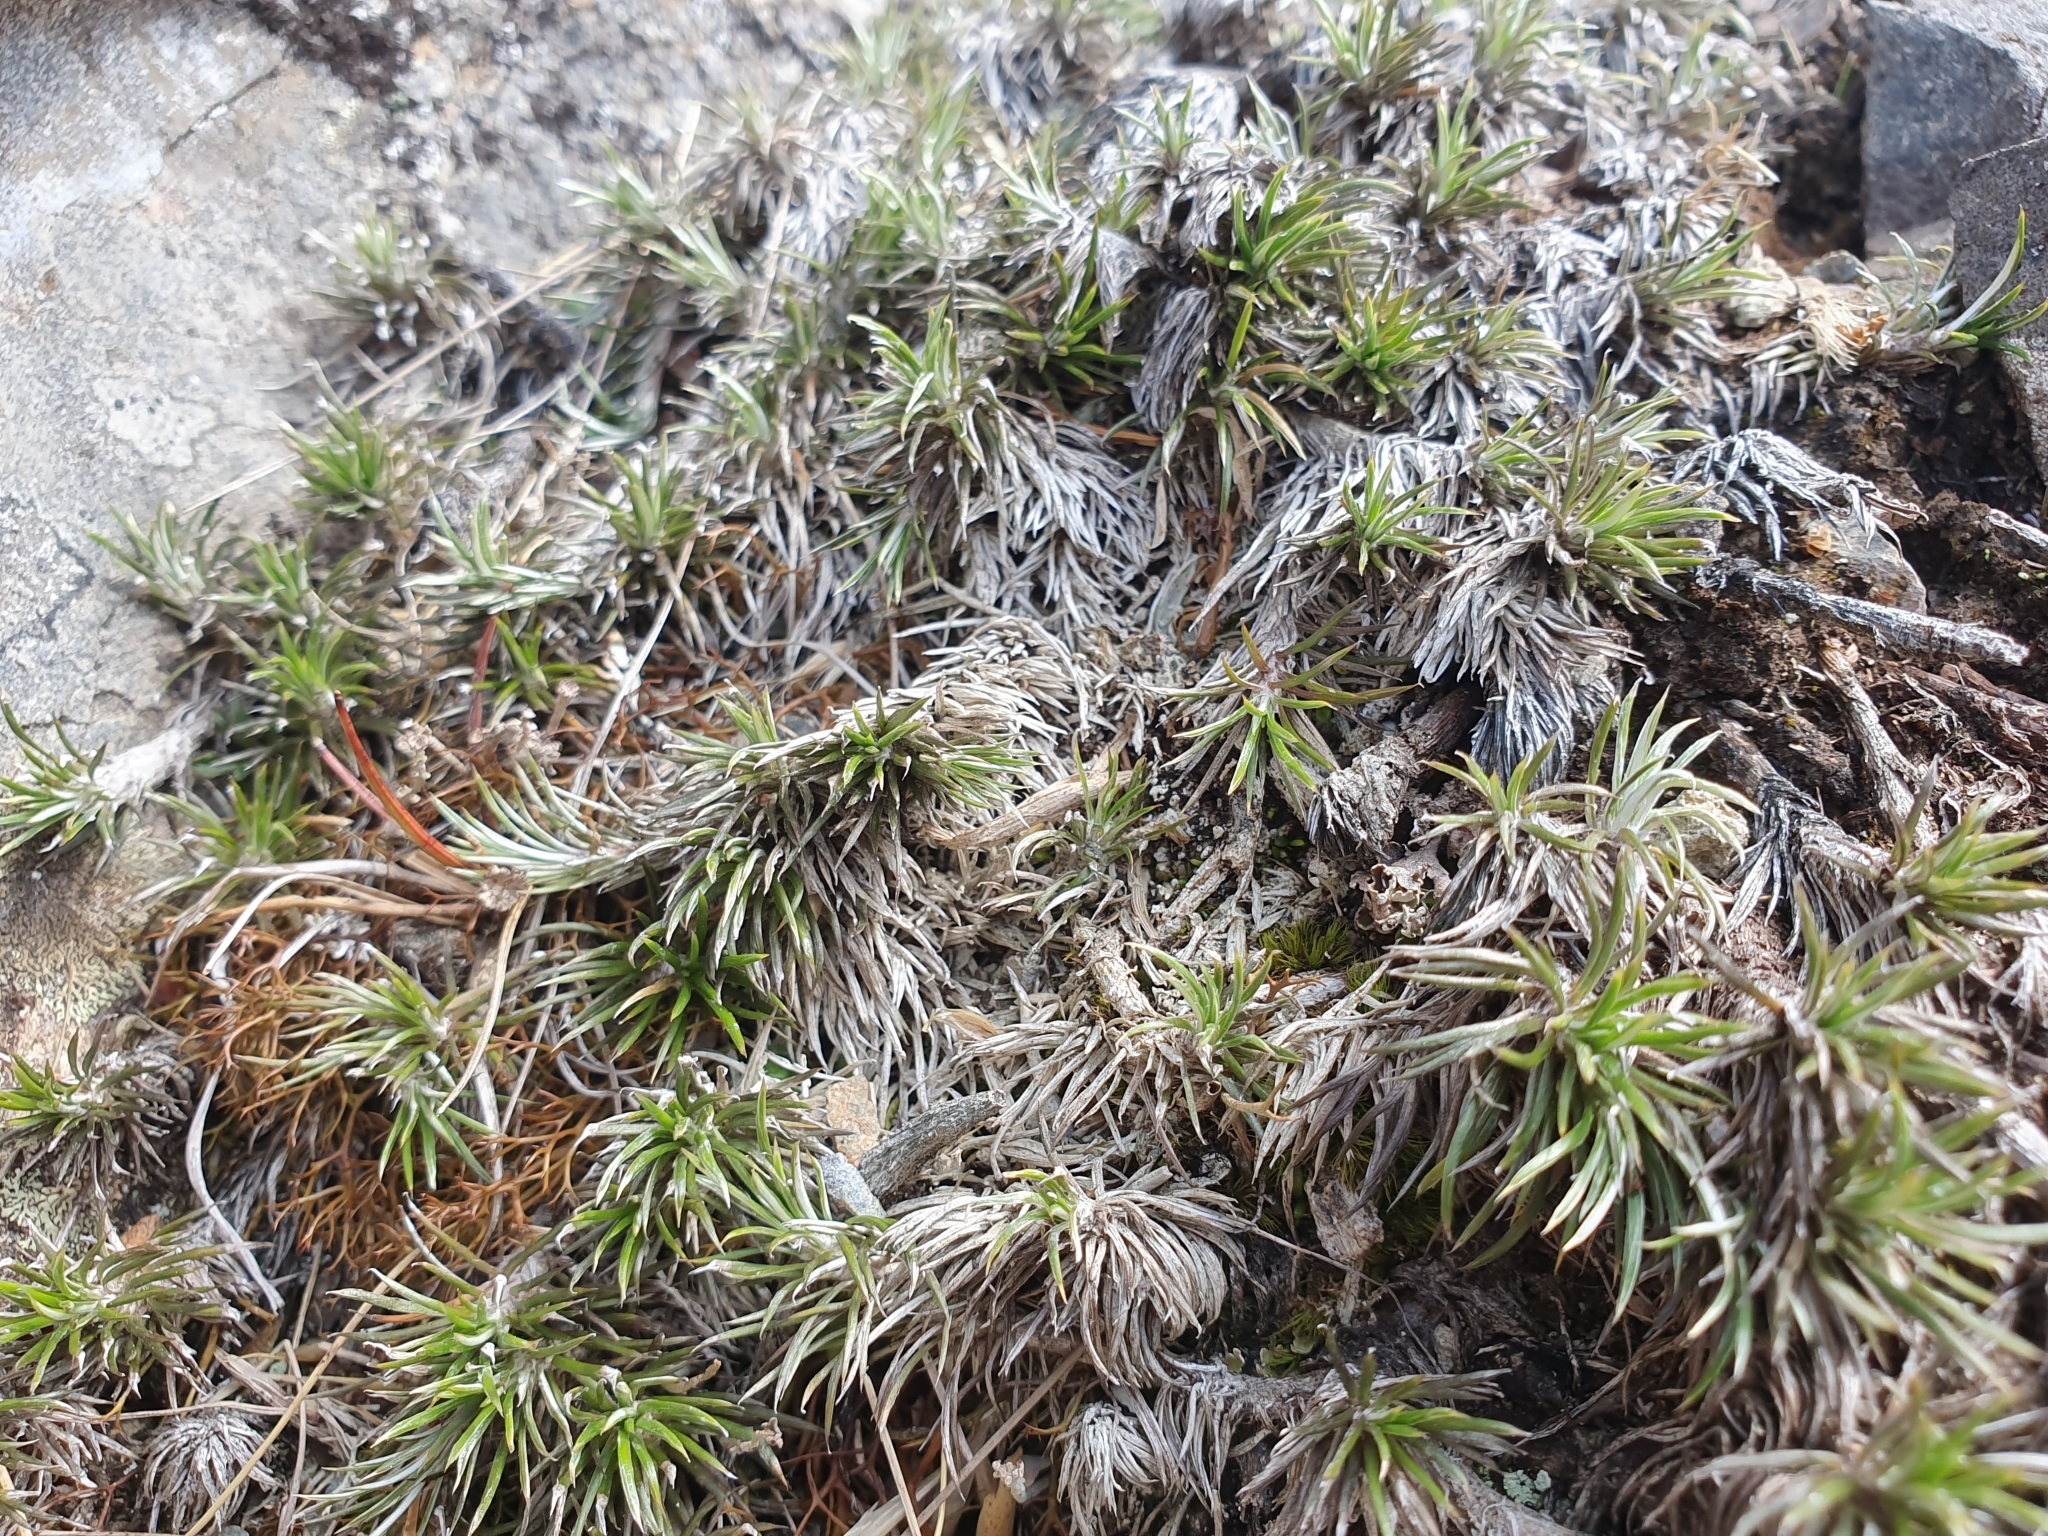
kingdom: Plantae
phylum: Tracheophyta
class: Magnoliopsida
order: Asterales
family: Asteraceae
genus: Celmisia
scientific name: Celmisia laricifolia
